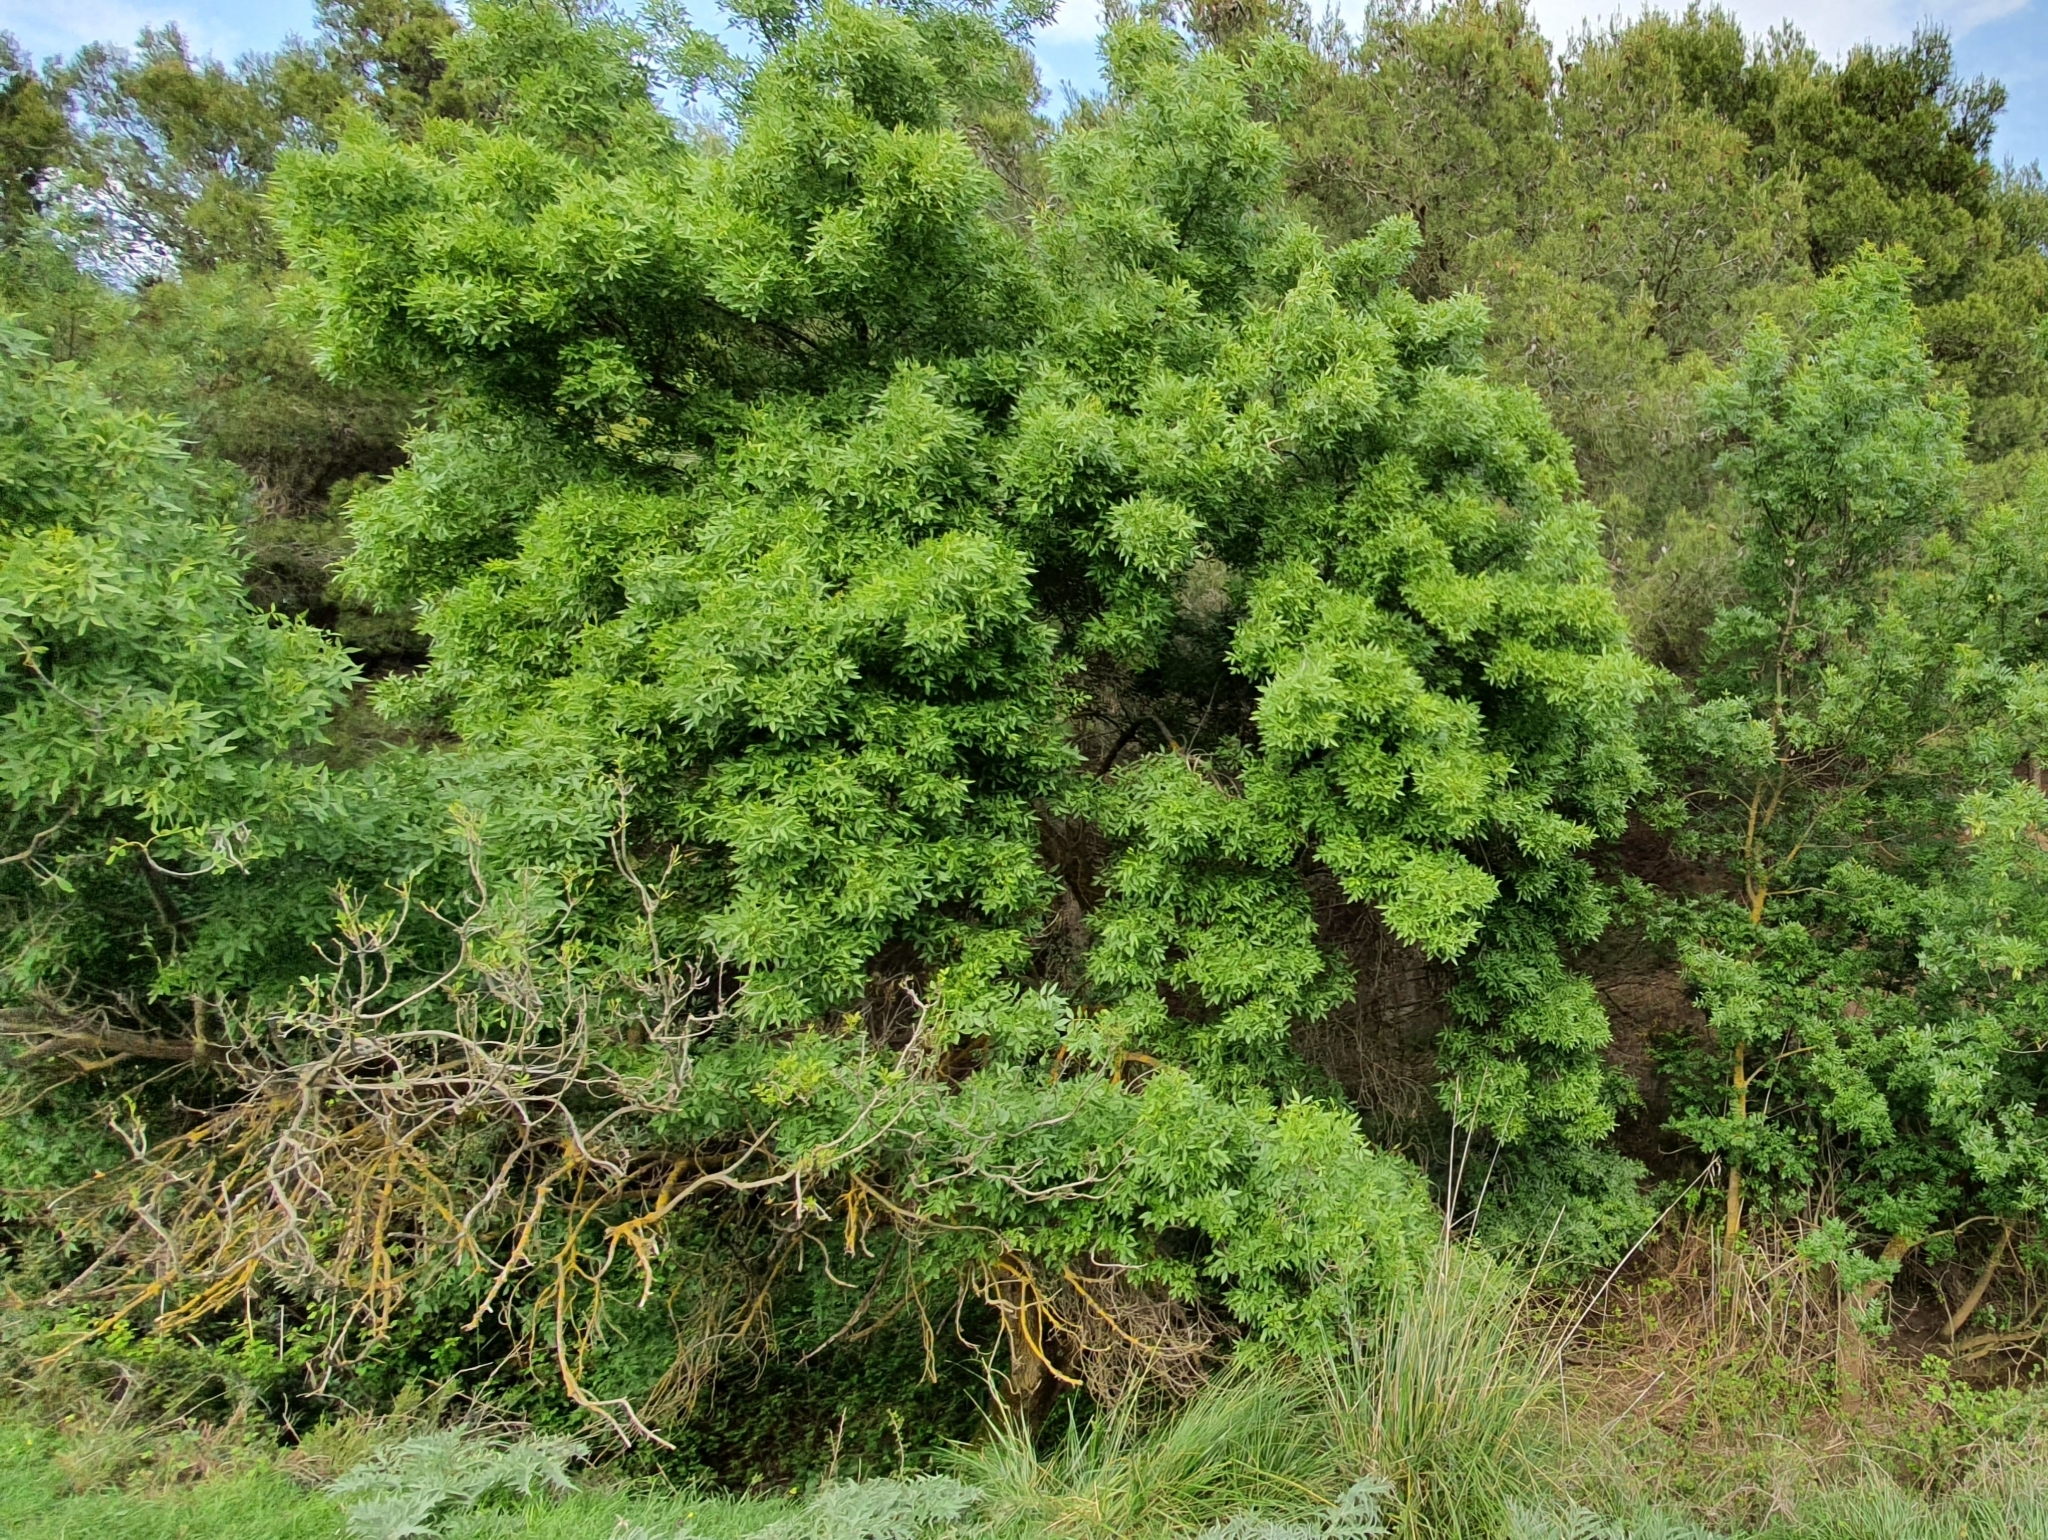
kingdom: Plantae
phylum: Tracheophyta
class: Magnoliopsida
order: Lamiales
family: Oleaceae
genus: Fraxinus
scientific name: Fraxinus angustifolia
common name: Narrow-leafed ash
